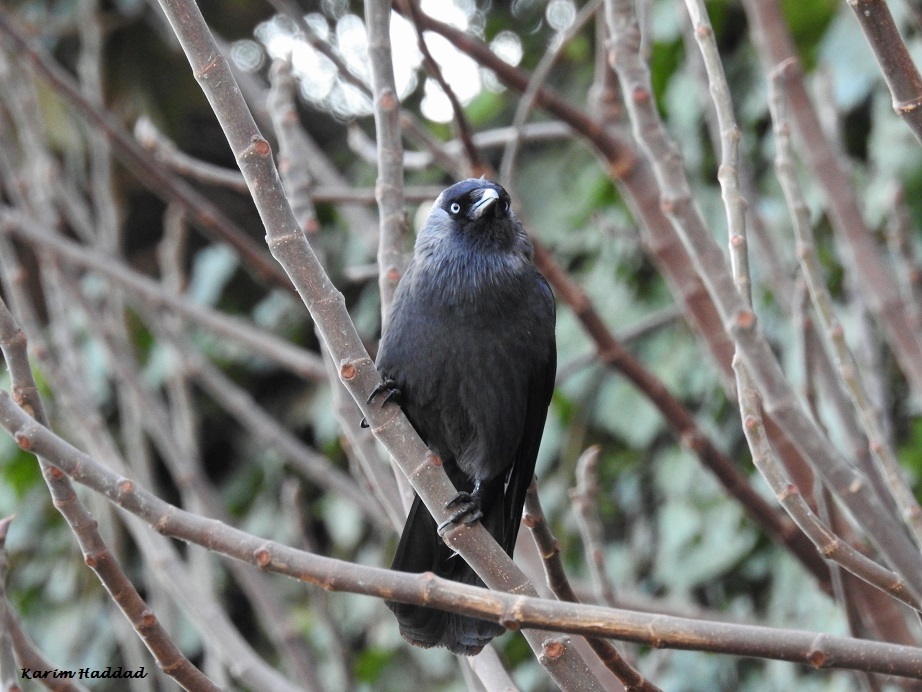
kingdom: Animalia
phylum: Chordata
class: Aves
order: Passeriformes
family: Corvidae
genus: Coloeus
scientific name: Coloeus monedula
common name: Western jackdaw
